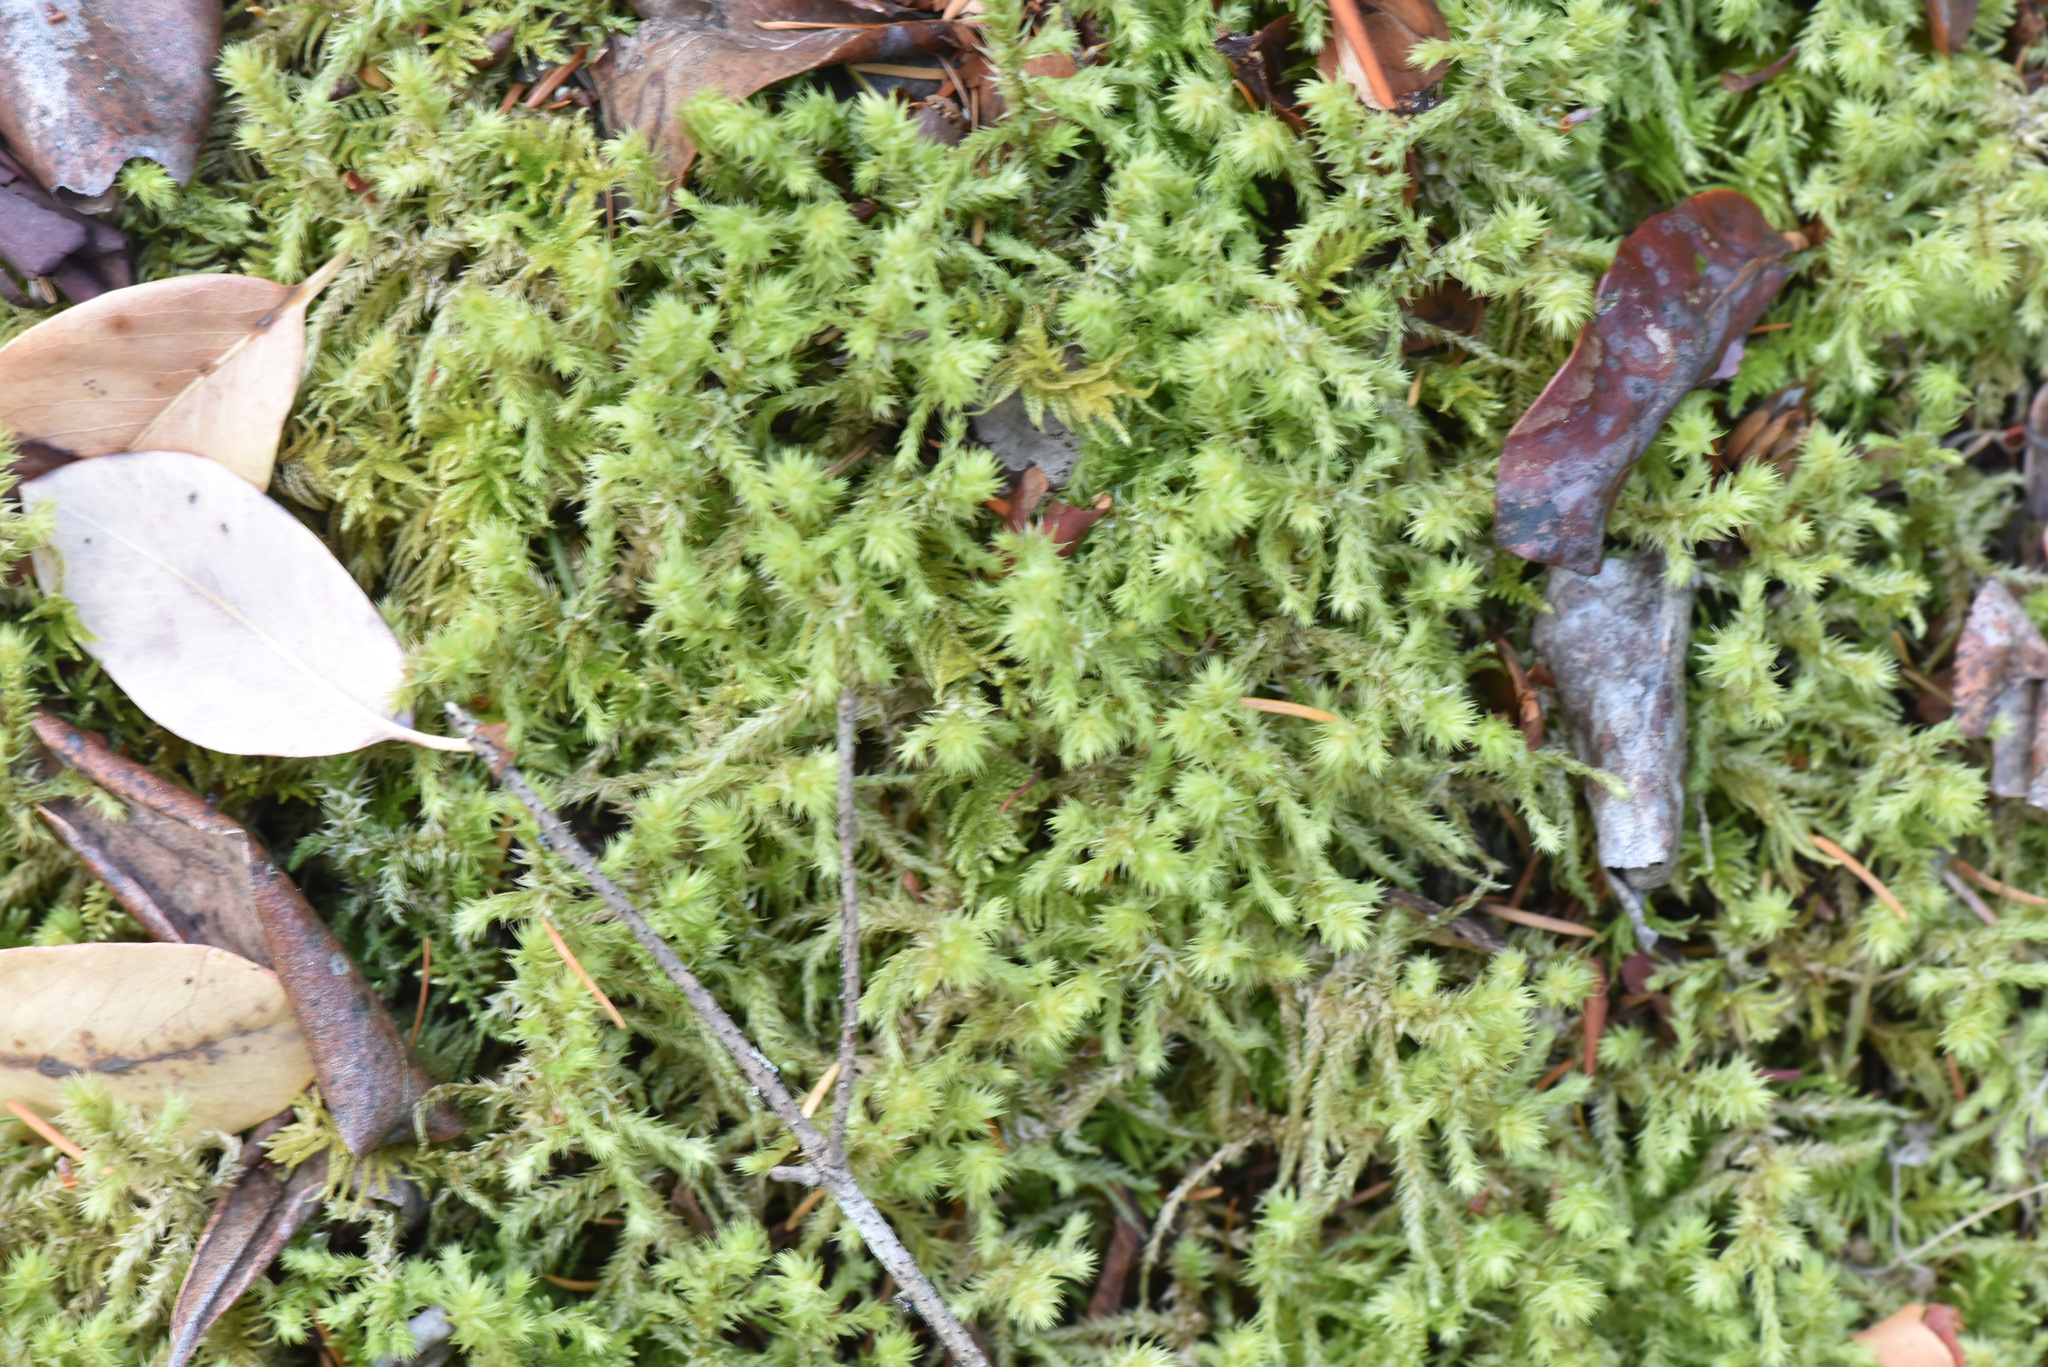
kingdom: Plantae
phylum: Bryophyta
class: Bryopsida
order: Hypnales
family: Hylocomiaceae
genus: Hylocomiadelphus
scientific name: Hylocomiadelphus triquetrus
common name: Rough goose neck moss
